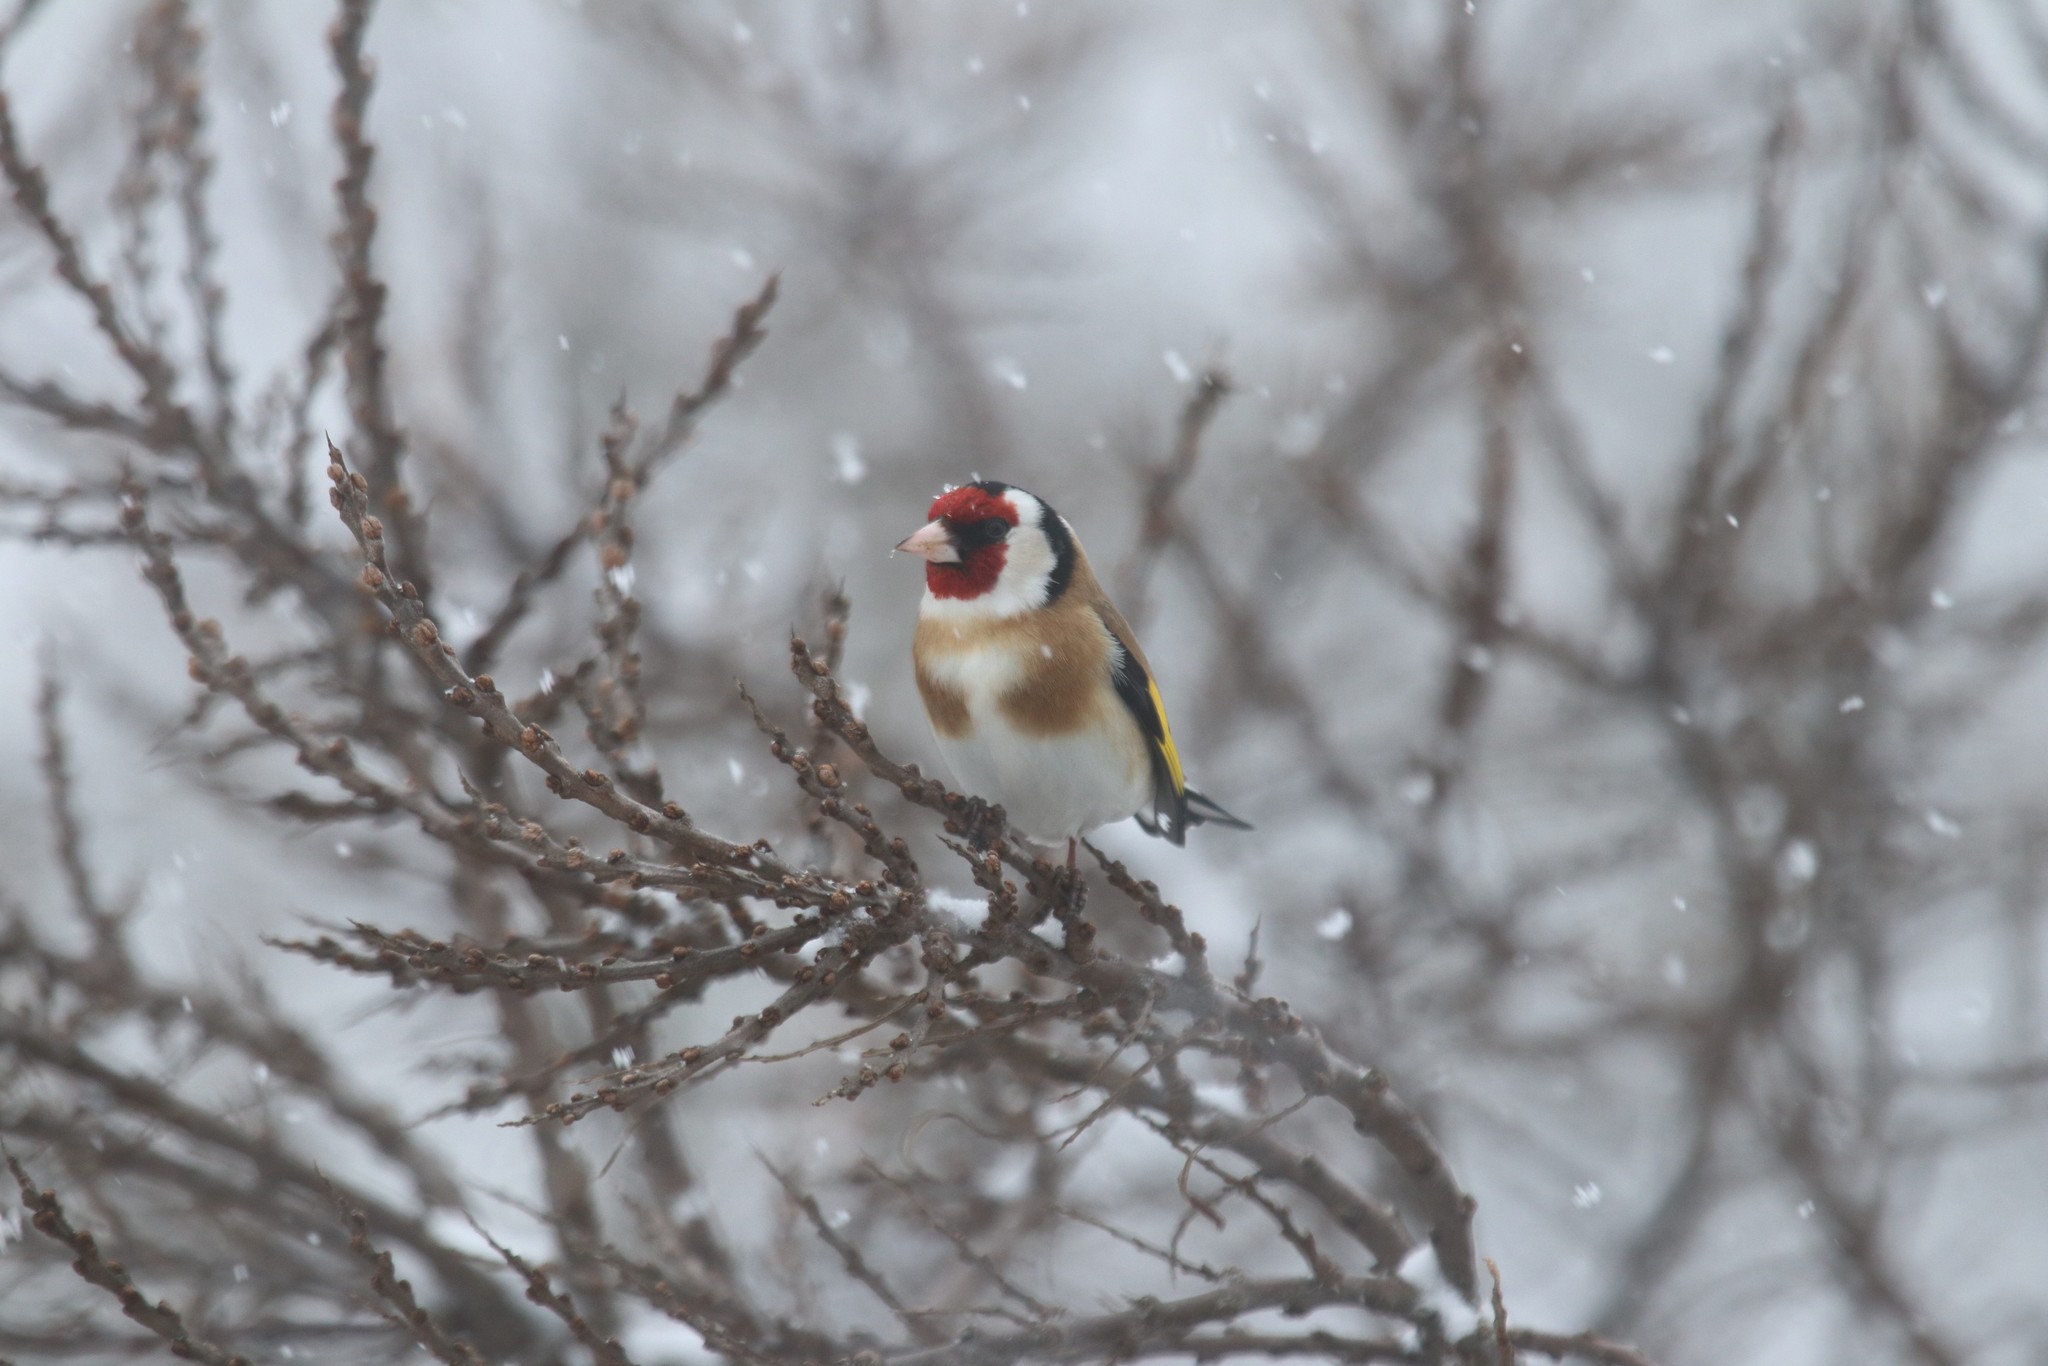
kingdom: Animalia
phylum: Chordata
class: Aves
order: Passeriformes
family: Fringillidae
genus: Carduelis
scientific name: Carduelis carduelis
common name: European goldfinch
